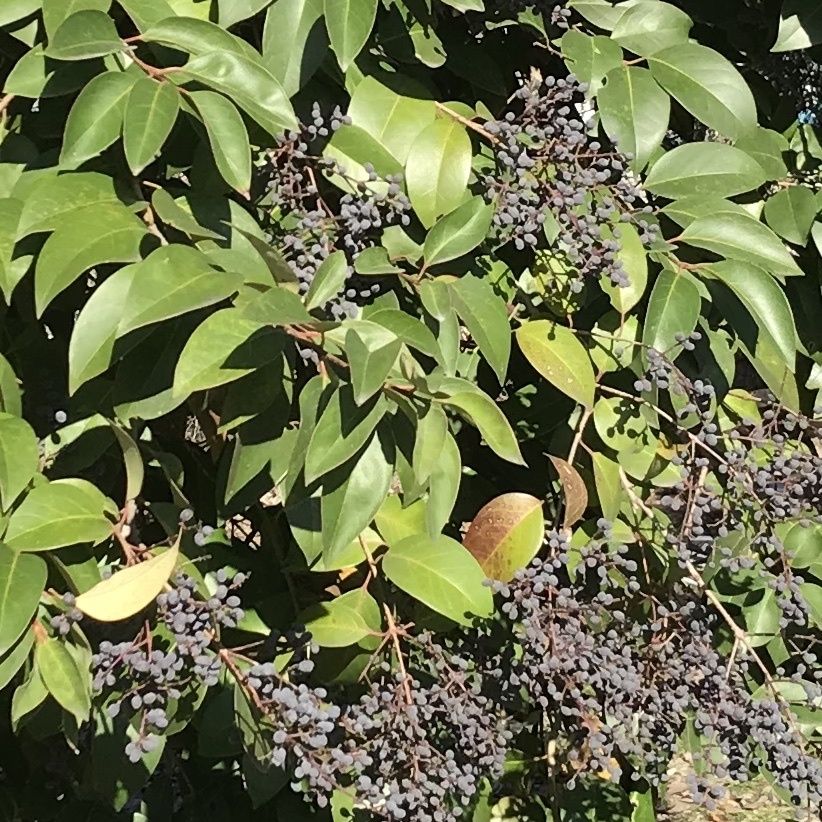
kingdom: Plantae
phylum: Tracheophyta
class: Magnoliopsida
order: Lamiales
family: Oleaceae
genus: Ligustrum
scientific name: Ligustrum lucidum
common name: Glossy privet
